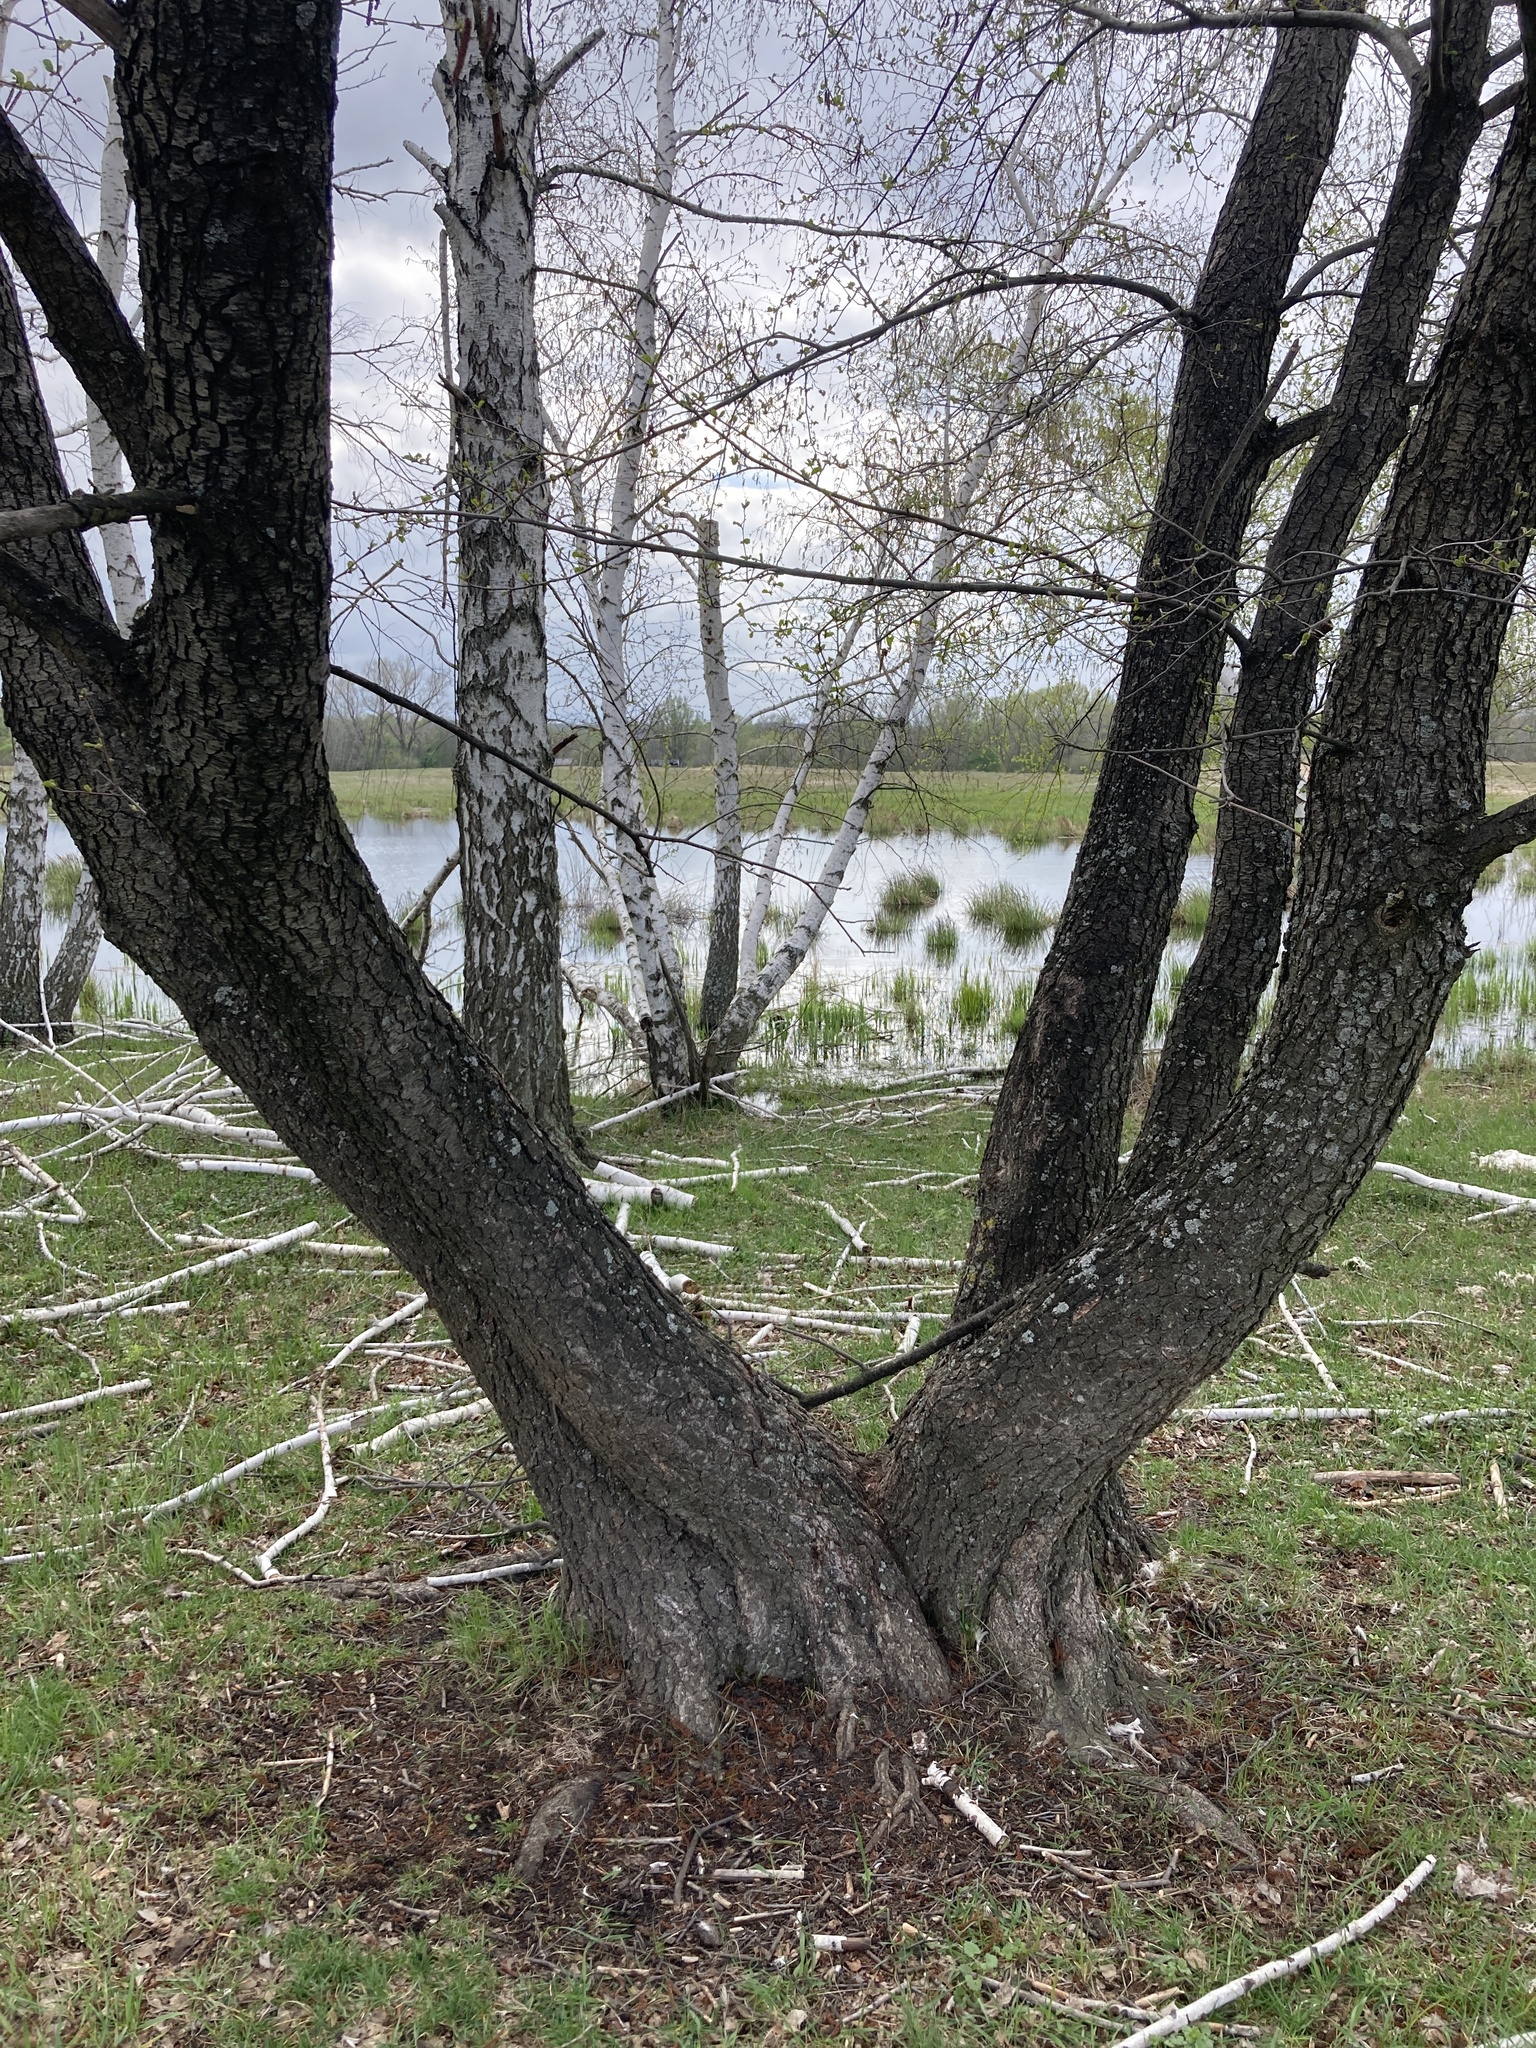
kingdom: Plantae
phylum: Tracheophyta
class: Magnoliopsida
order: Fagales
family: Betulaceae
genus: Alnus
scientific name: Alnus glutinosa
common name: Black alder
